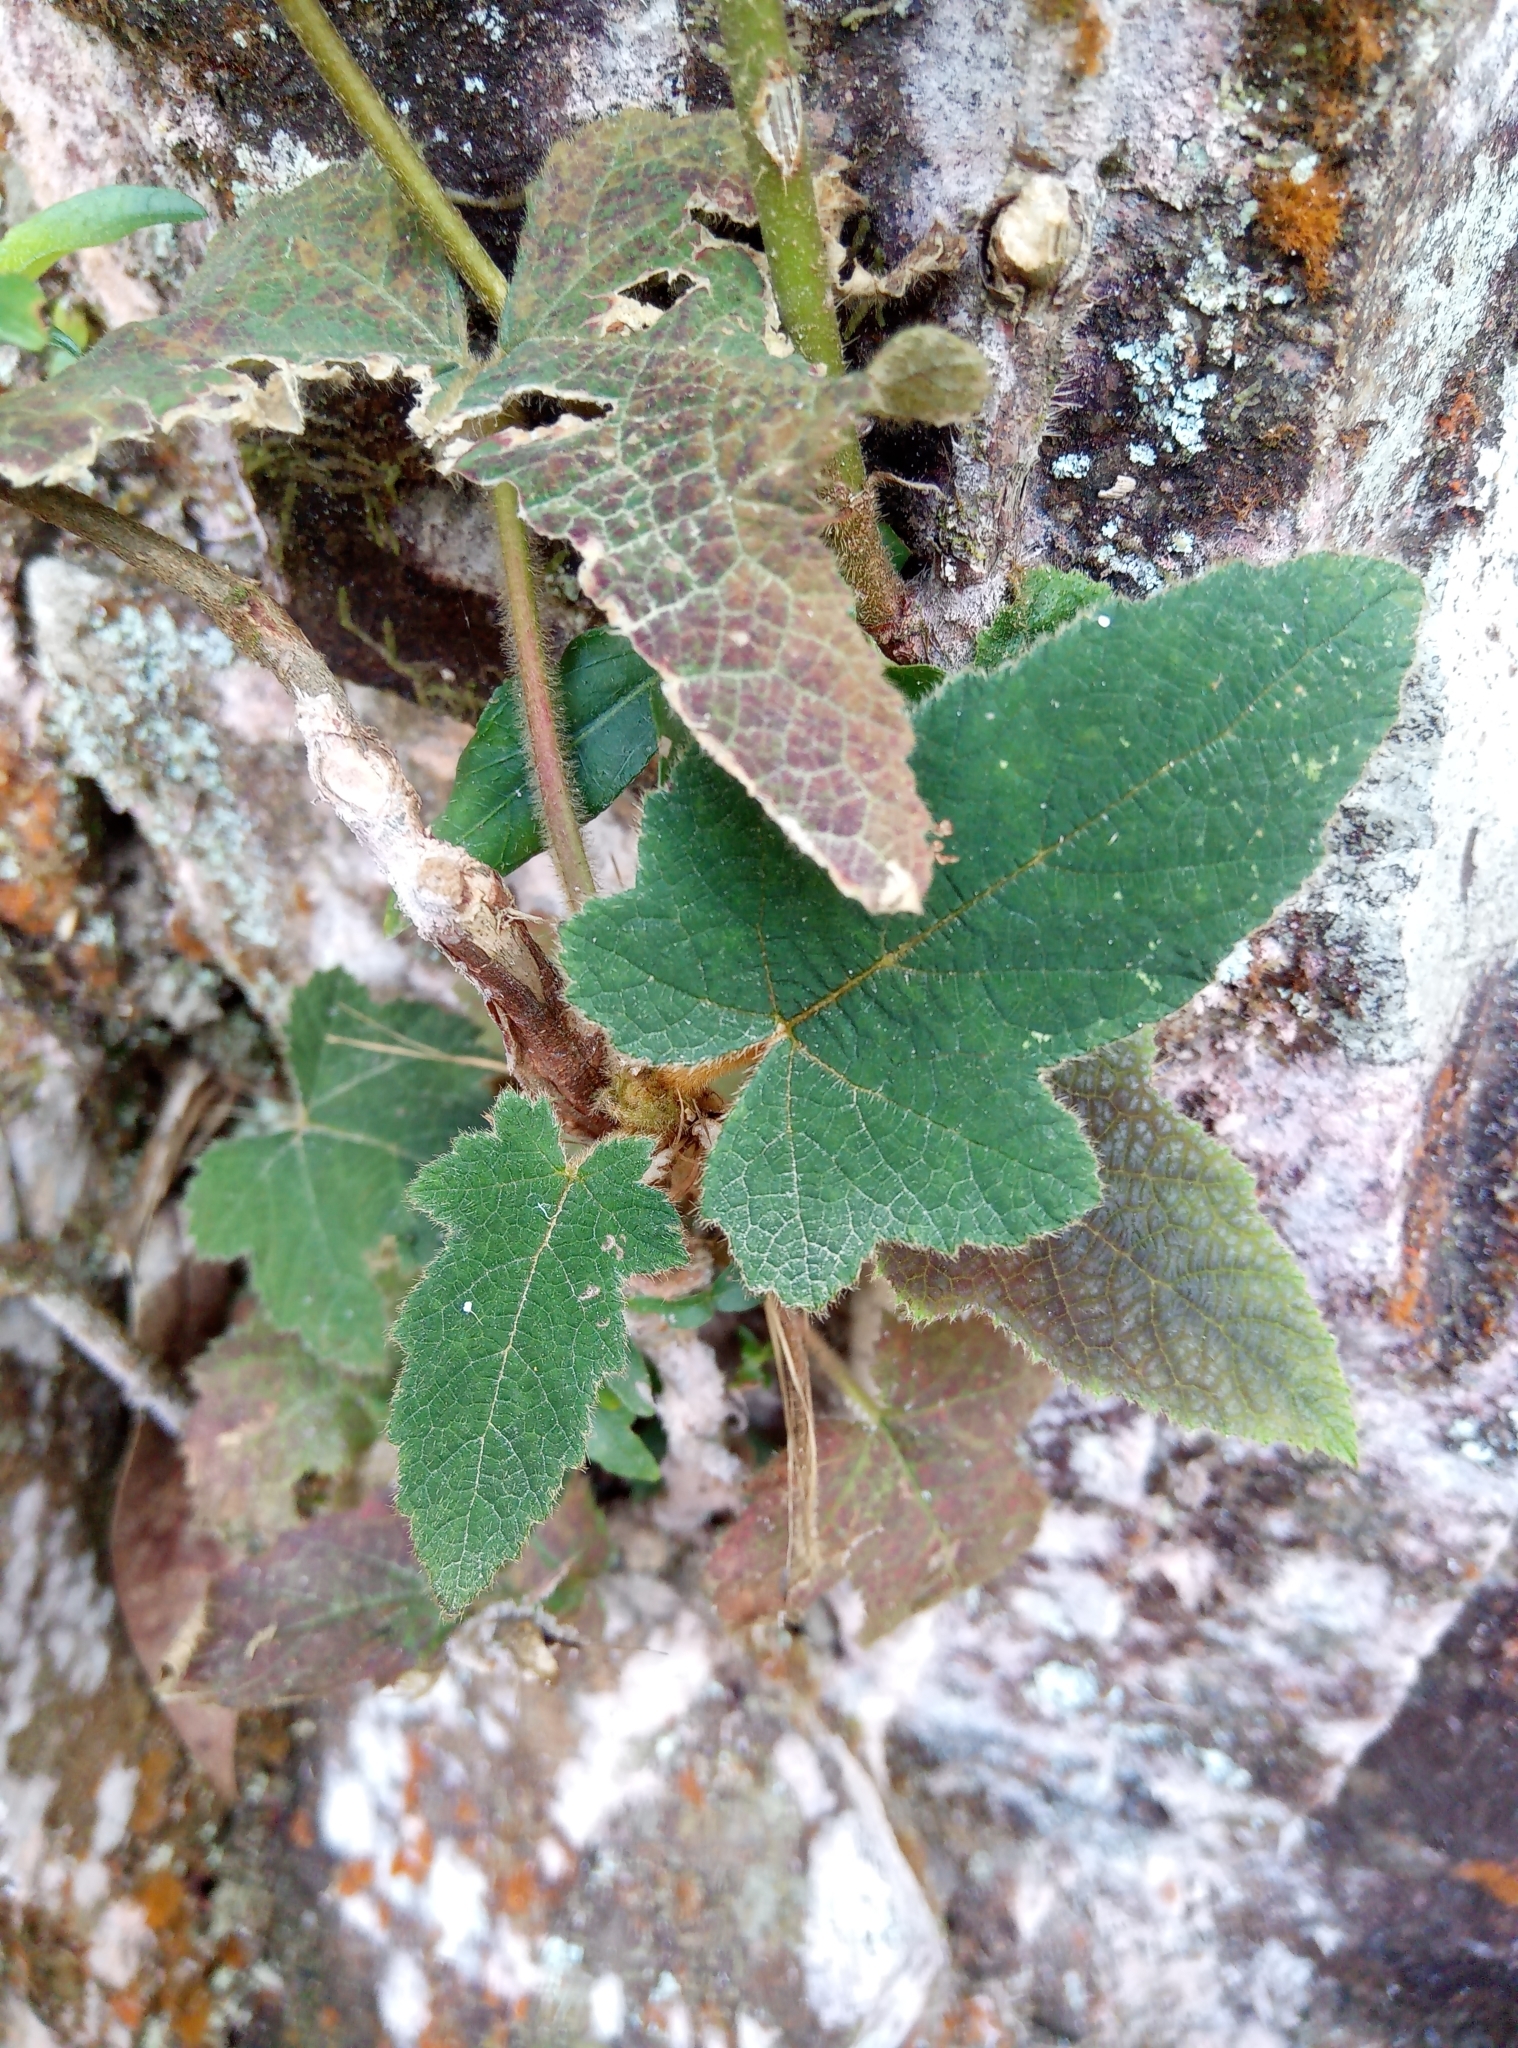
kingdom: Plantae
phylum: Tracheophyta
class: Magnoliopsida
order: Rosales
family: Rosaceae
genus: Rubus
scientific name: Rubus reflexus
